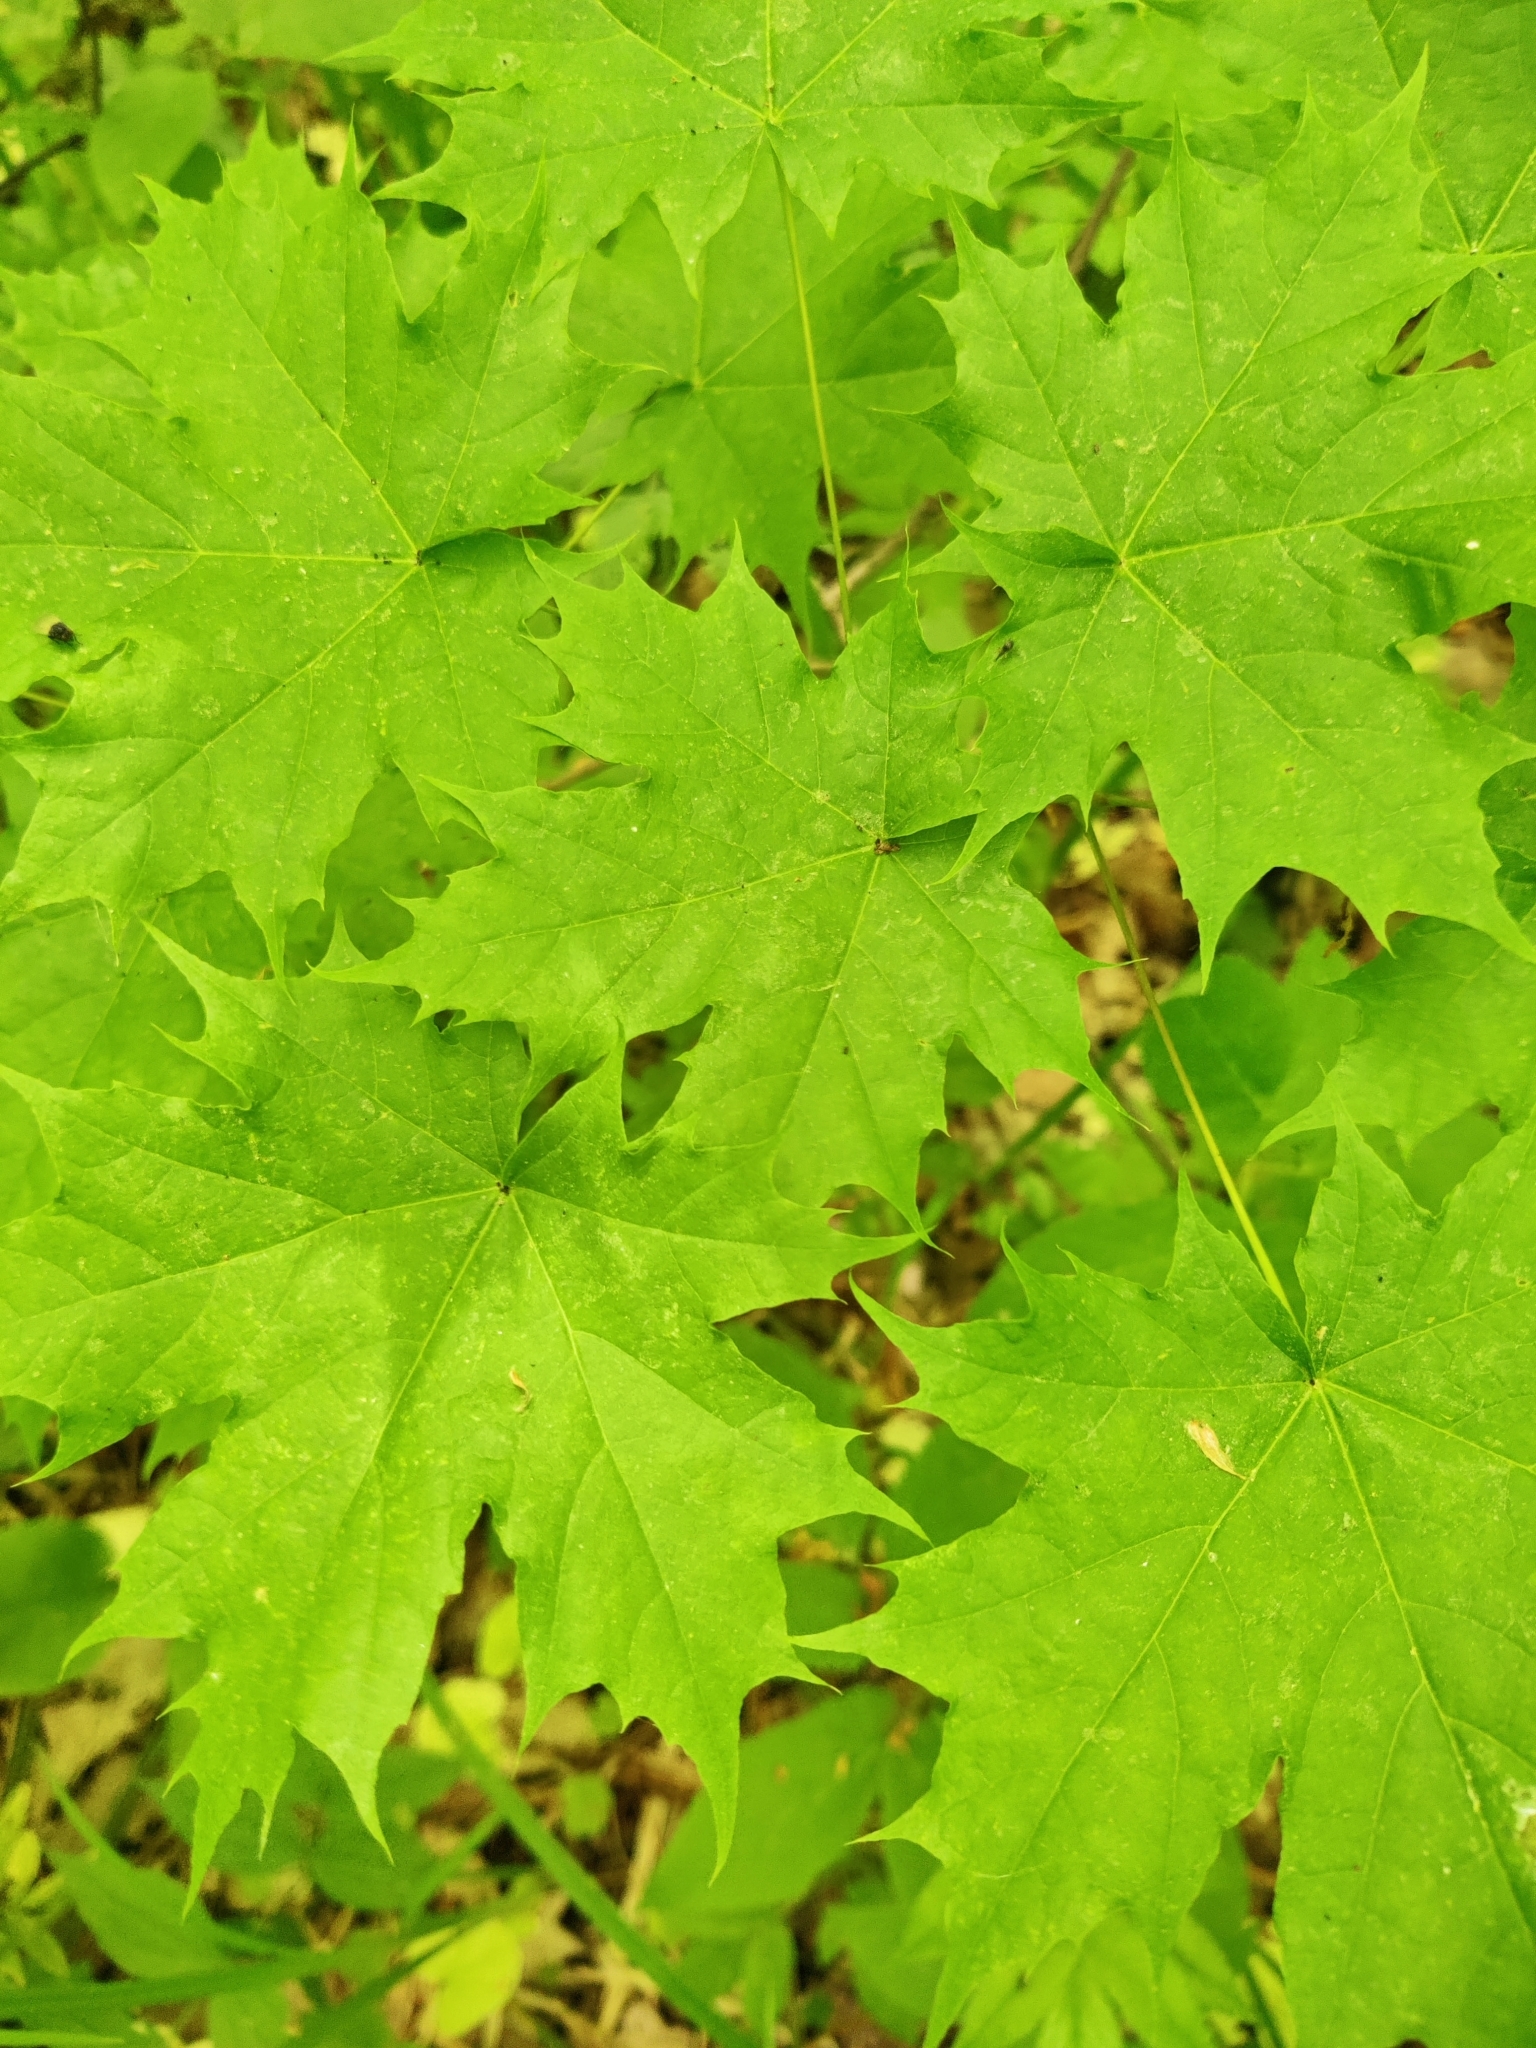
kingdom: Plantae
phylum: Tracheophyta
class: Magnoliopsida
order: Sapindales
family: Sapindaceae
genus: Acer
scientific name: Acer platanoides
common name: Norway maple
